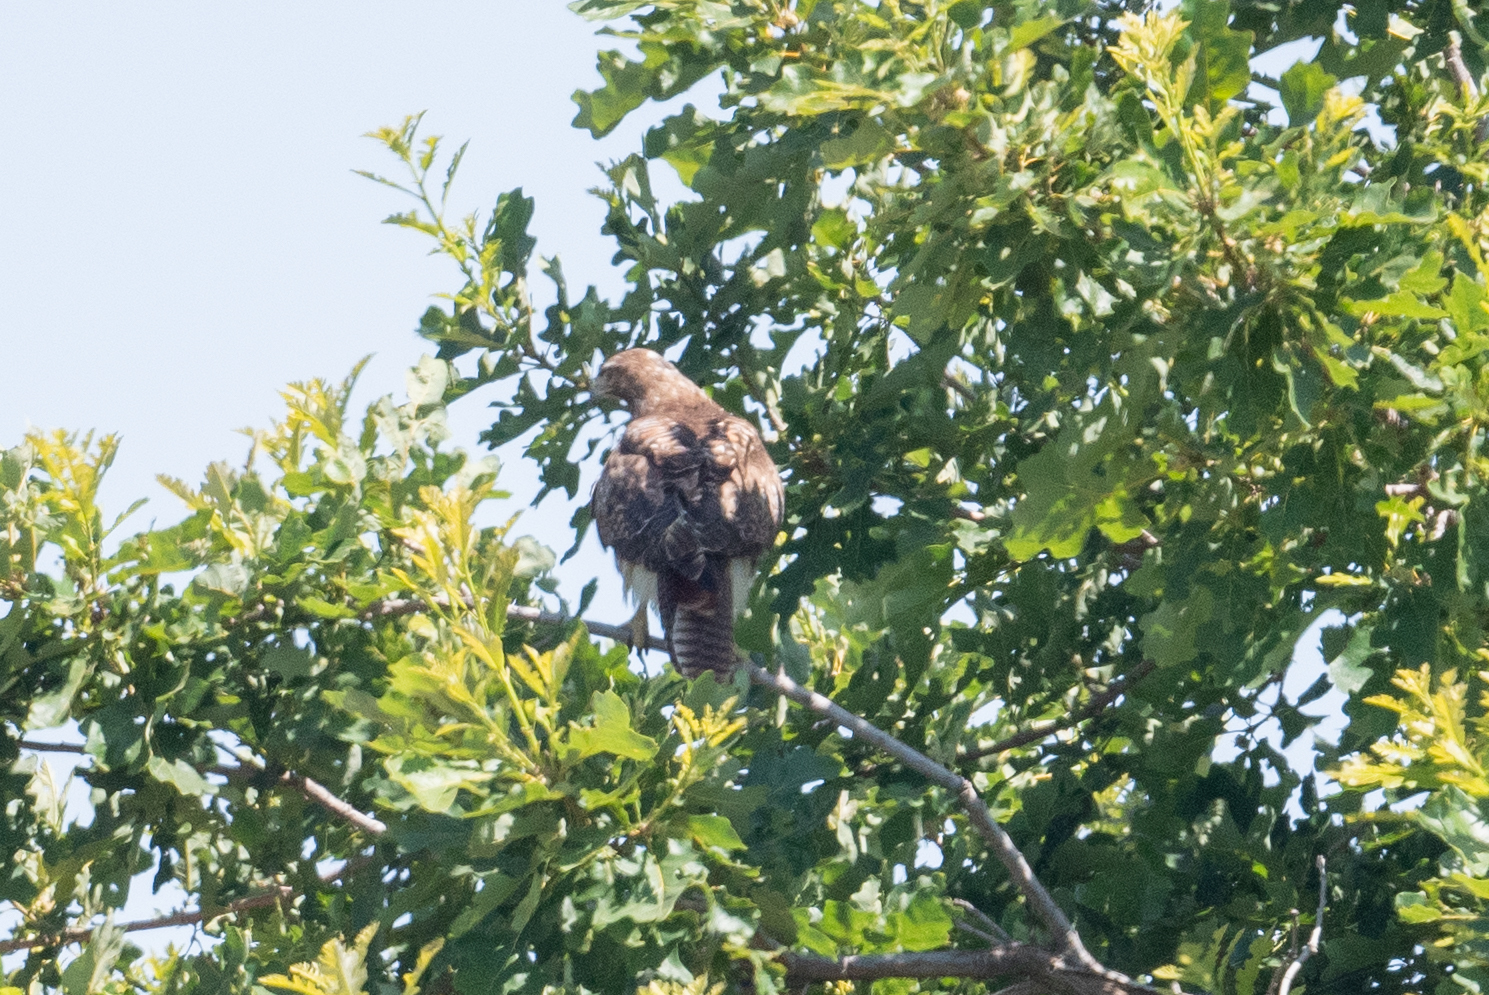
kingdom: Animalia
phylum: Chordata
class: Aves
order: Accipitriformes
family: Accipitridae
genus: Buteo
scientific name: Buteo jamaicensis
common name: Red-tailed hawk
